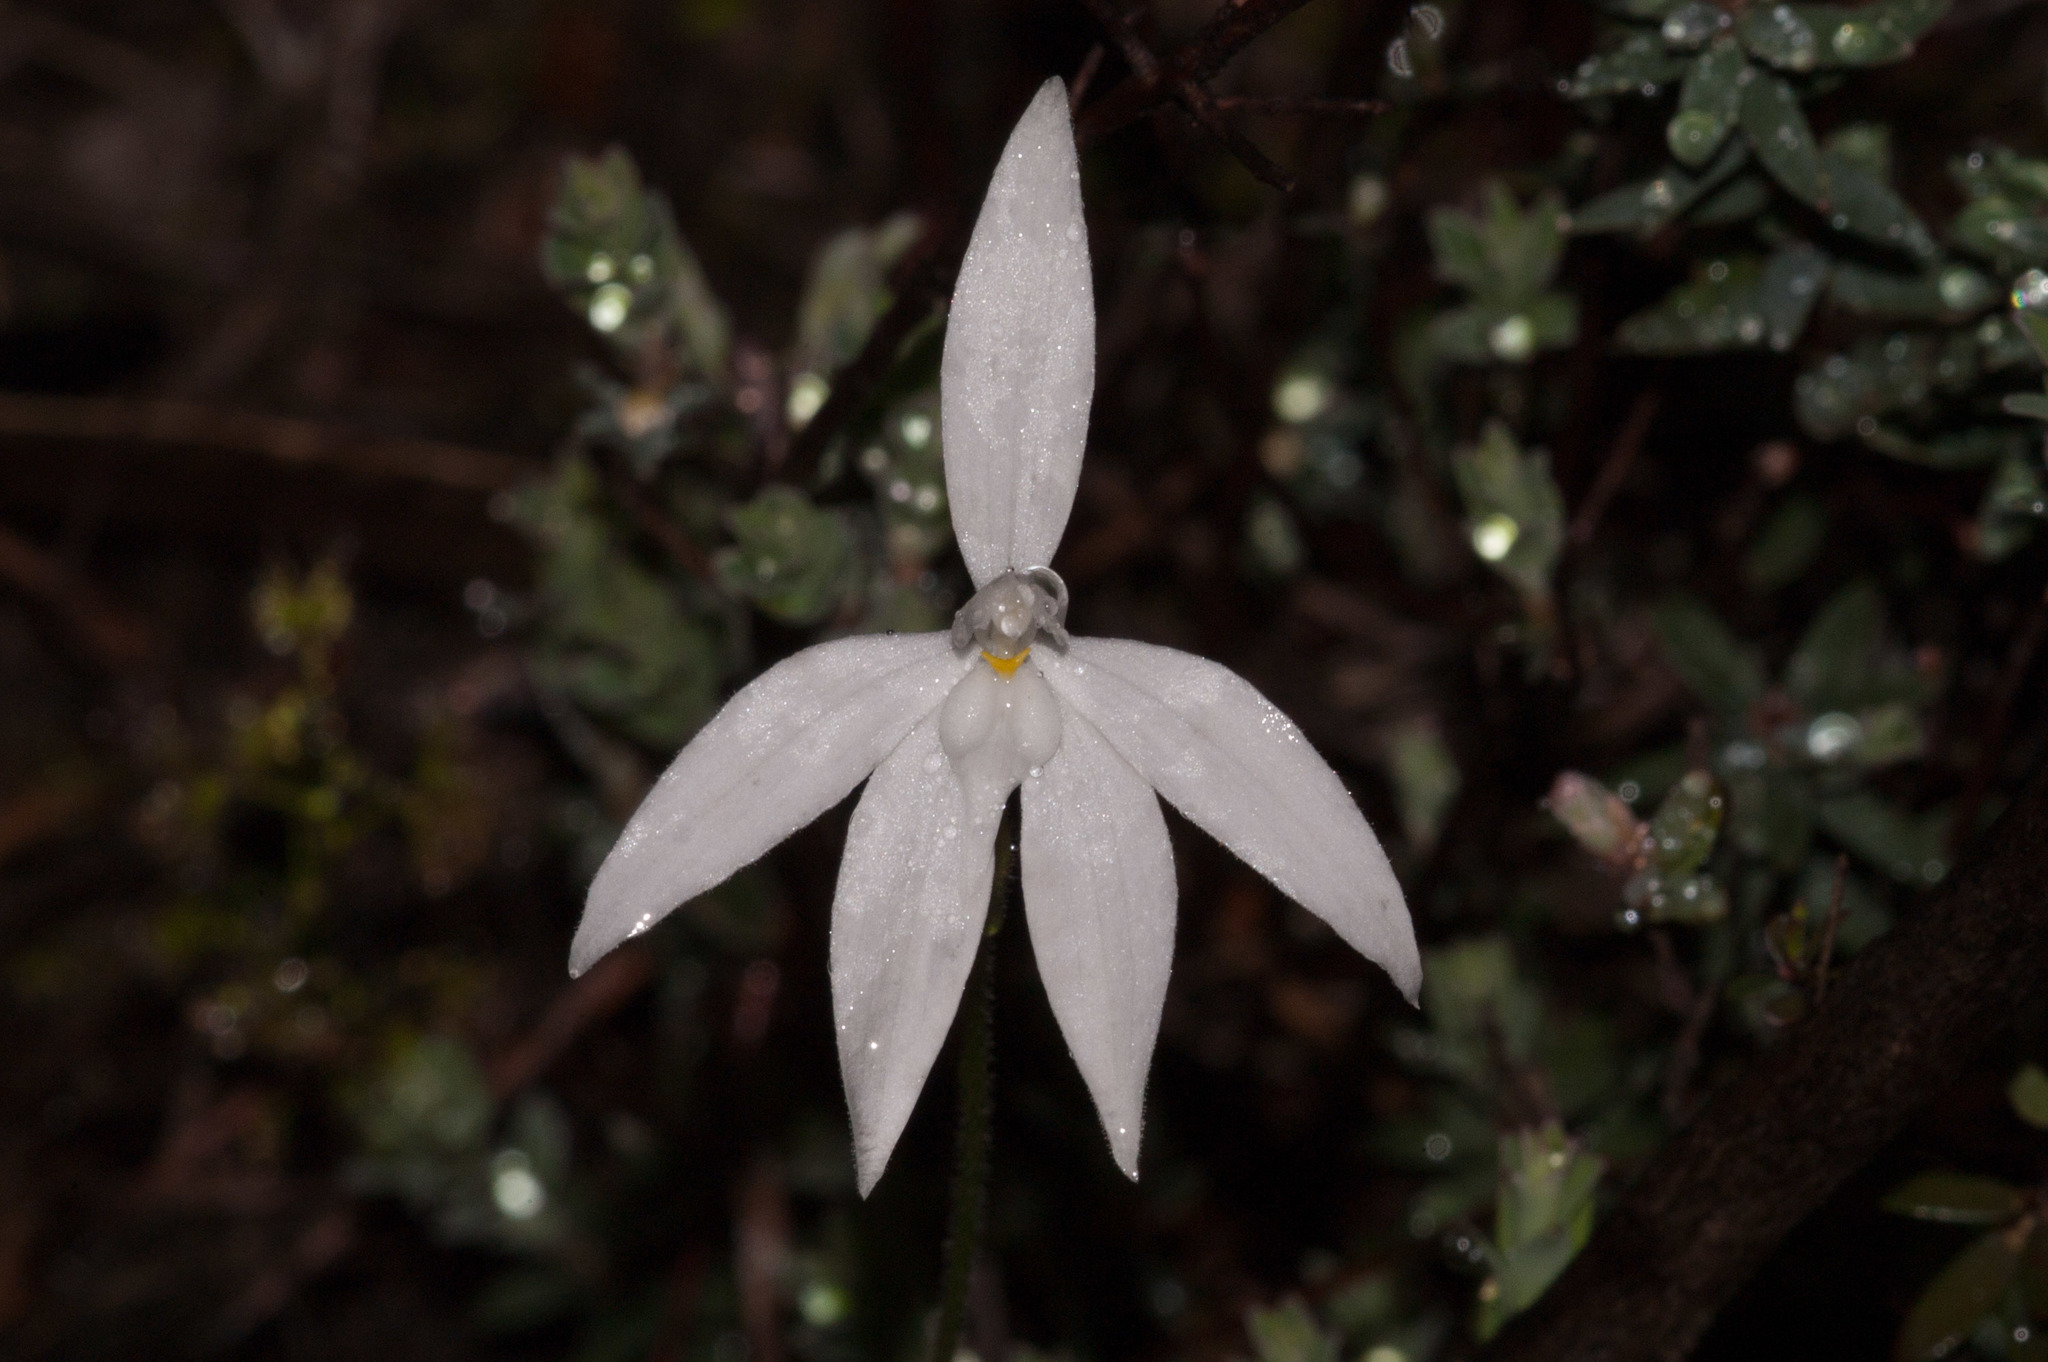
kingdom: Plantae
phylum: Tracheophyta
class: Liliopsida
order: Asparagales
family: Orchidaceae
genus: Caladenia
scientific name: Caladenia major
